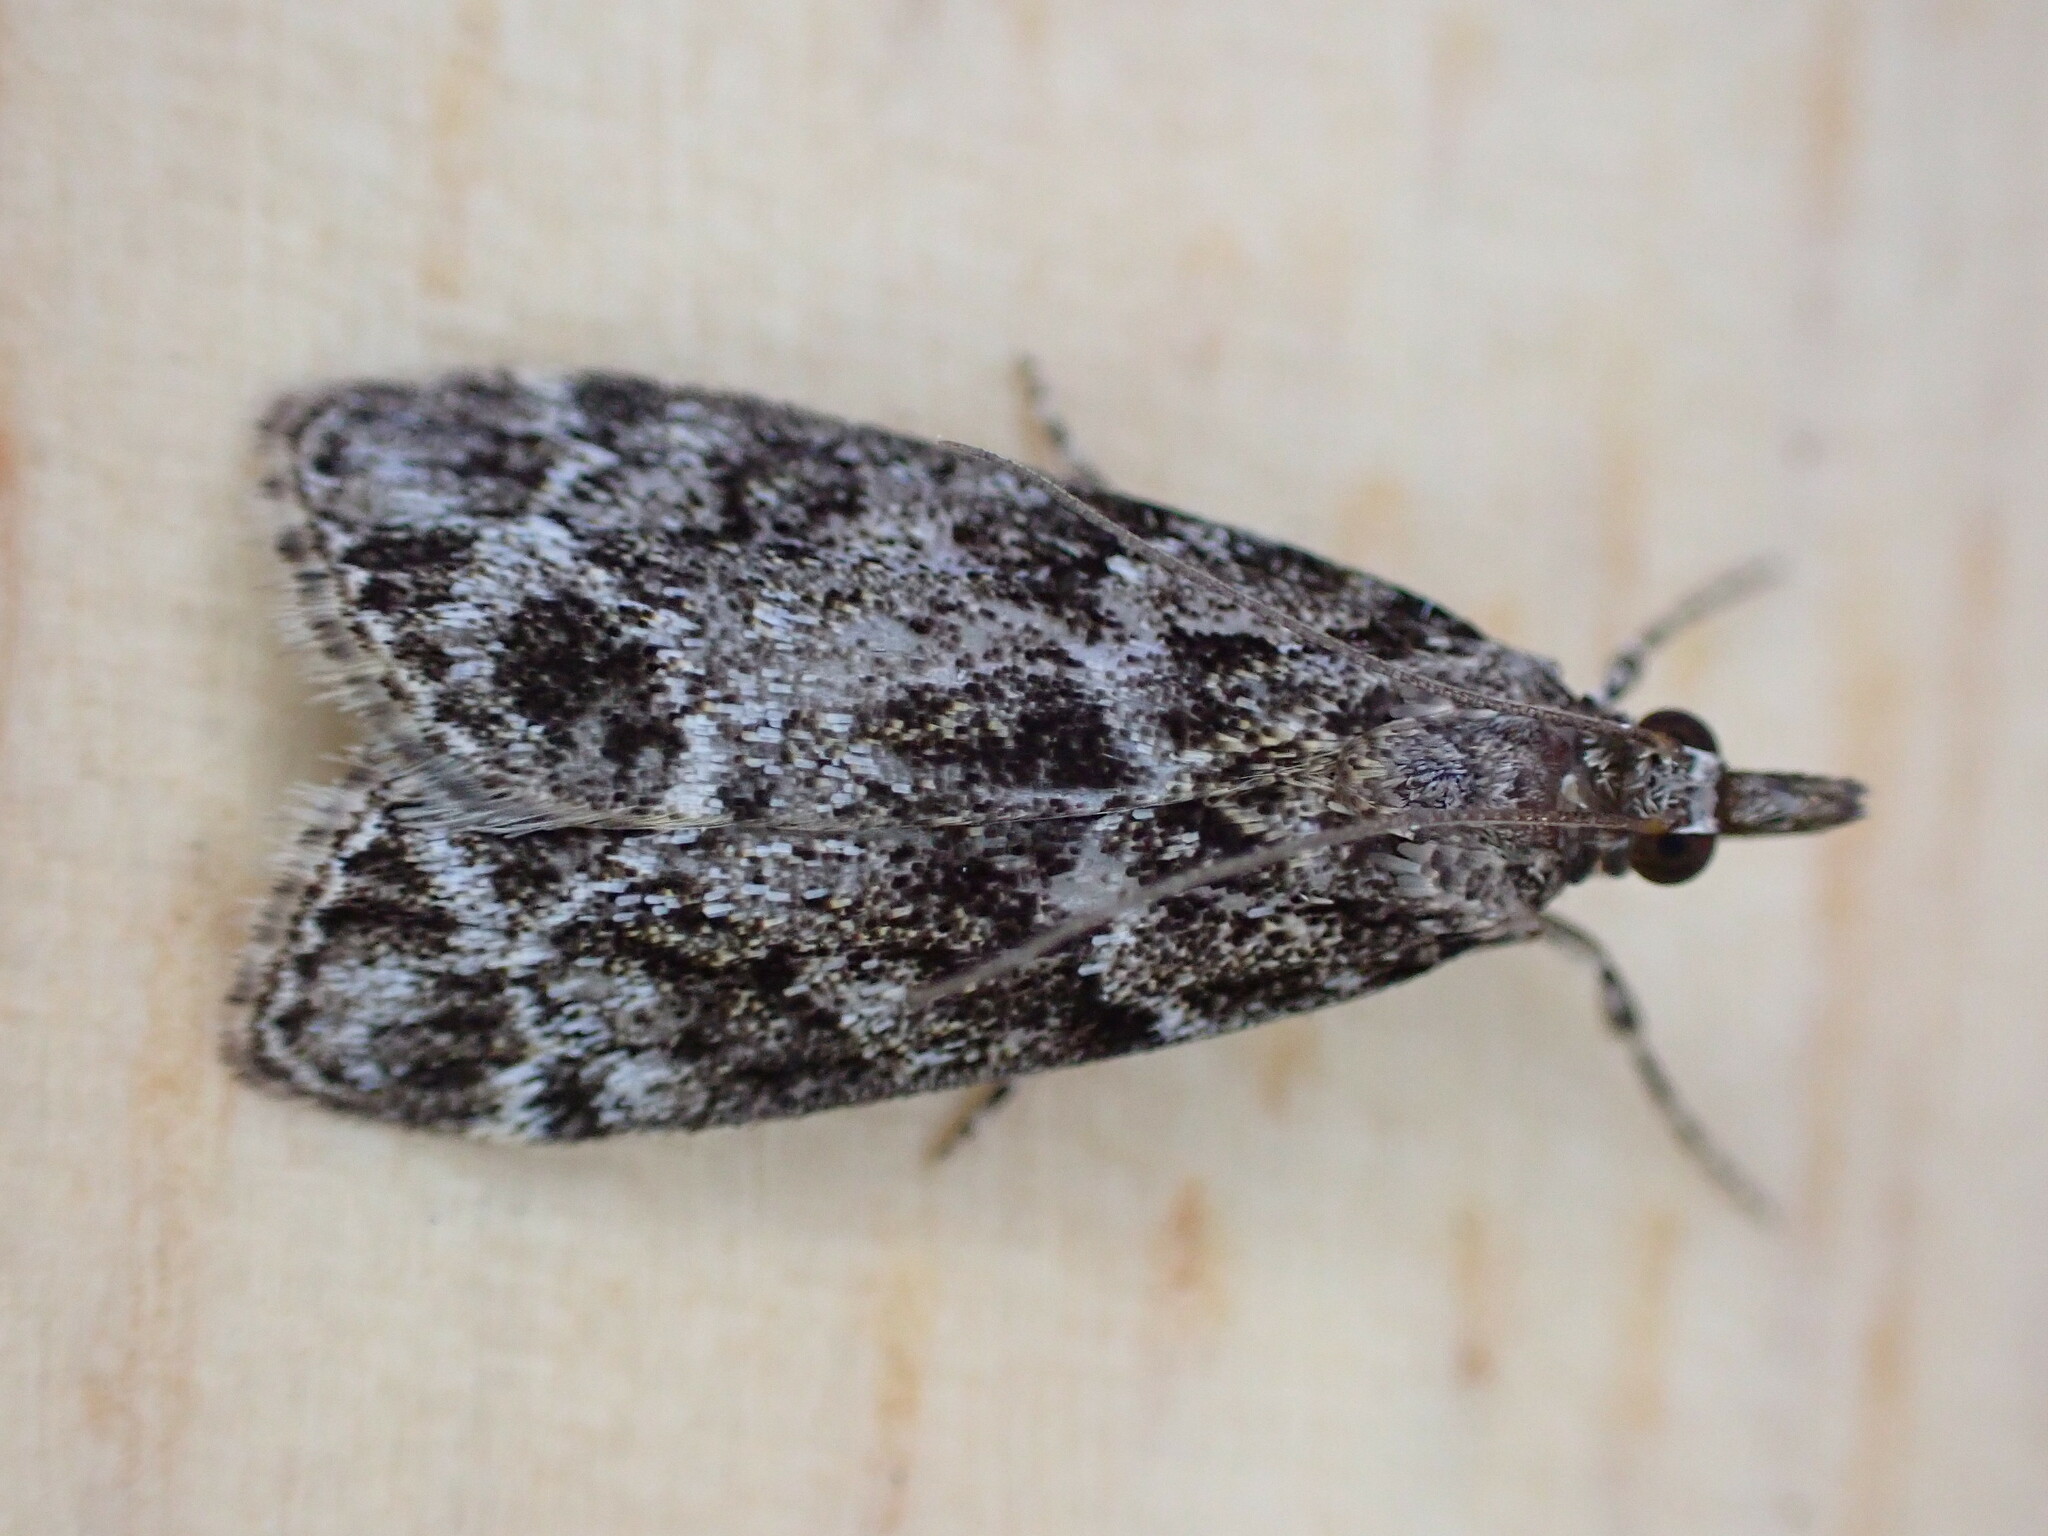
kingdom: Animalia
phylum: Arthropoda
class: Insecta
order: Lepidoptera
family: Crambidae
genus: Eudonia
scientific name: Eudonia mercurella
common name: Small grey
